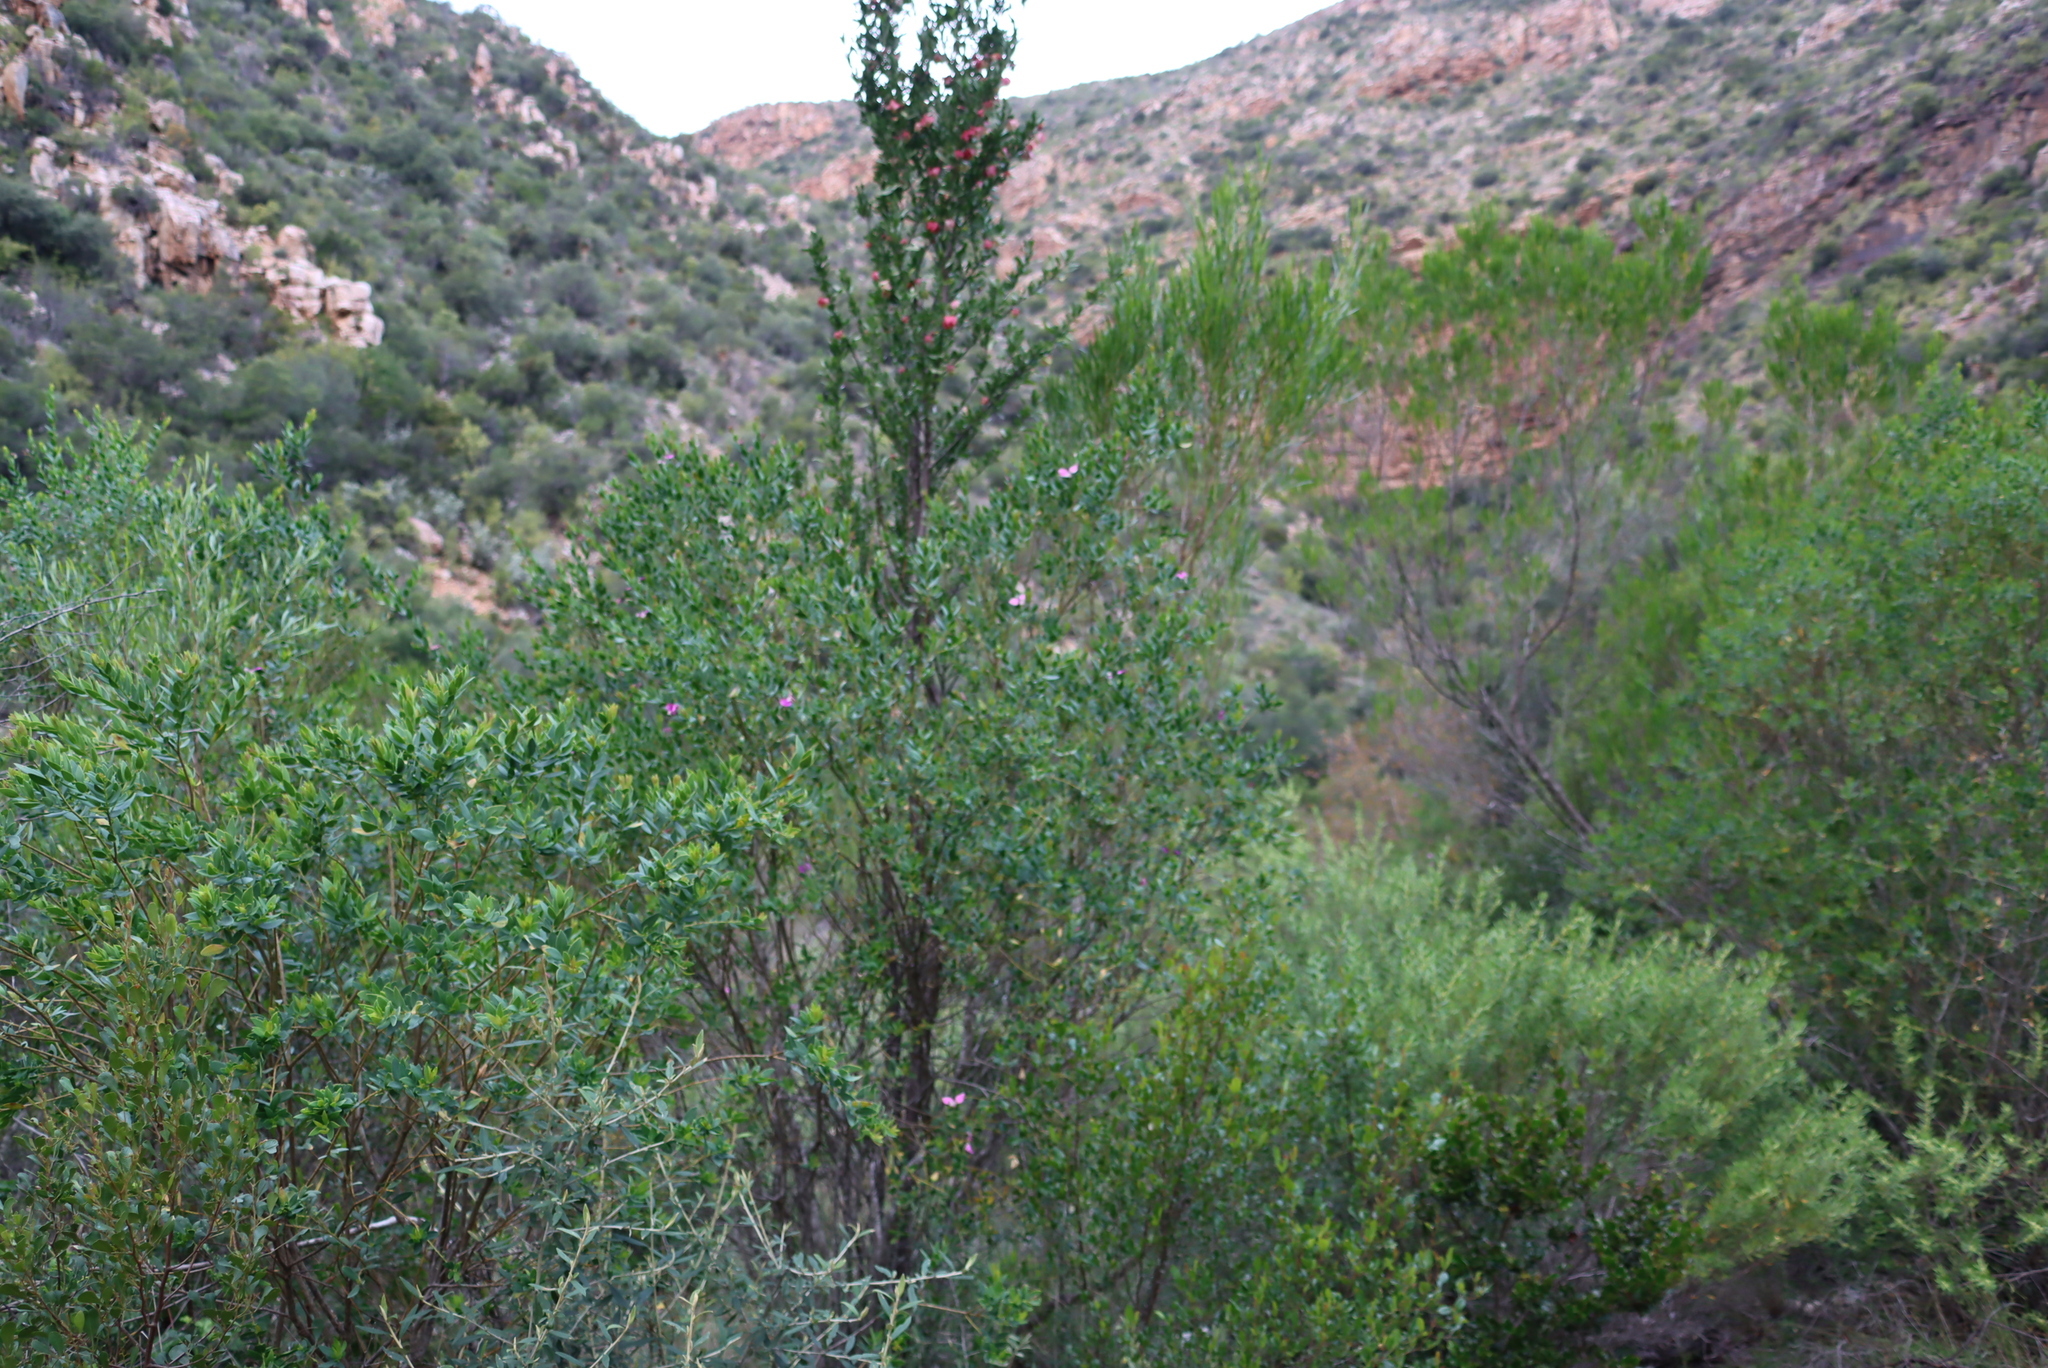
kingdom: Plantae
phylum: Tracheophyta
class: Magnoliopsida
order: Sapindales
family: Sapindaceae
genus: Dodonaea
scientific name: Dodonaea viscosa
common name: Hopbush
